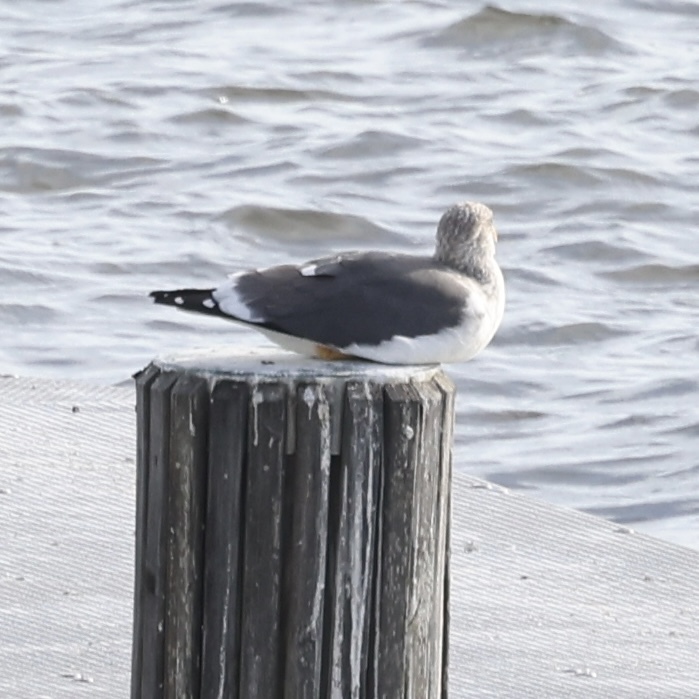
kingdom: Animalia
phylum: Chordata
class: Aves
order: Charadriiformes
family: Laridae
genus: Larus
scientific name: Larus fuscus
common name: Lesser black-backed gull
